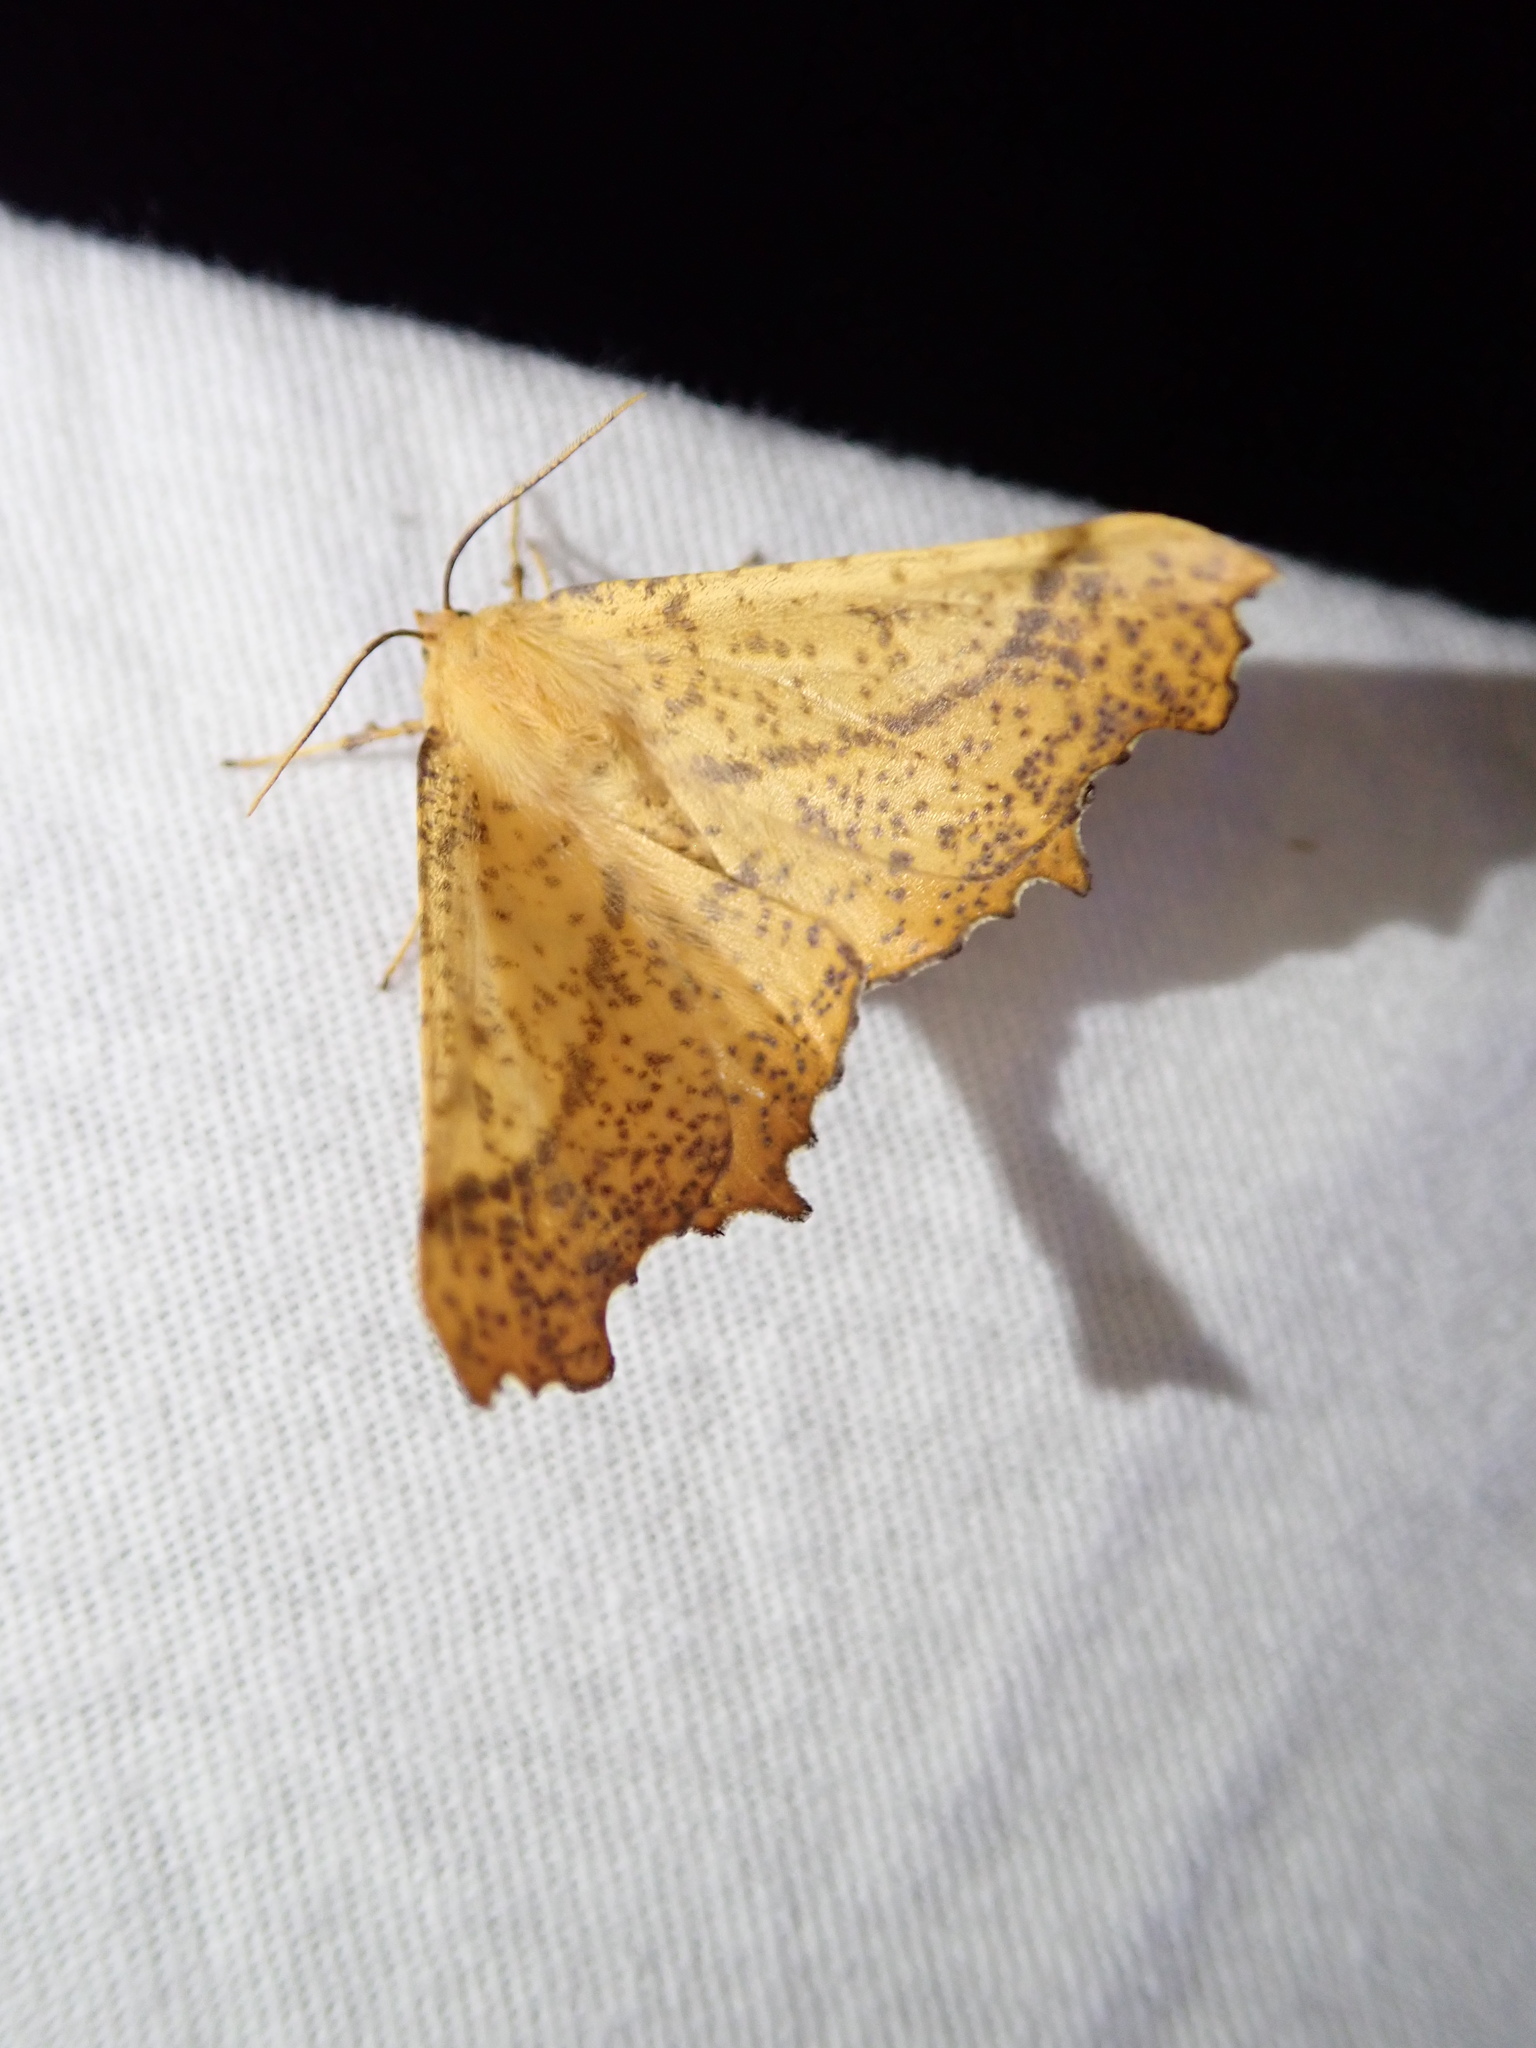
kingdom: Animalia
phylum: Arthropoda
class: Insecta
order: Lepidoptera
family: Geometridae
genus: Ennomos
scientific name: Ennomos magnaria
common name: Maple spanworm
